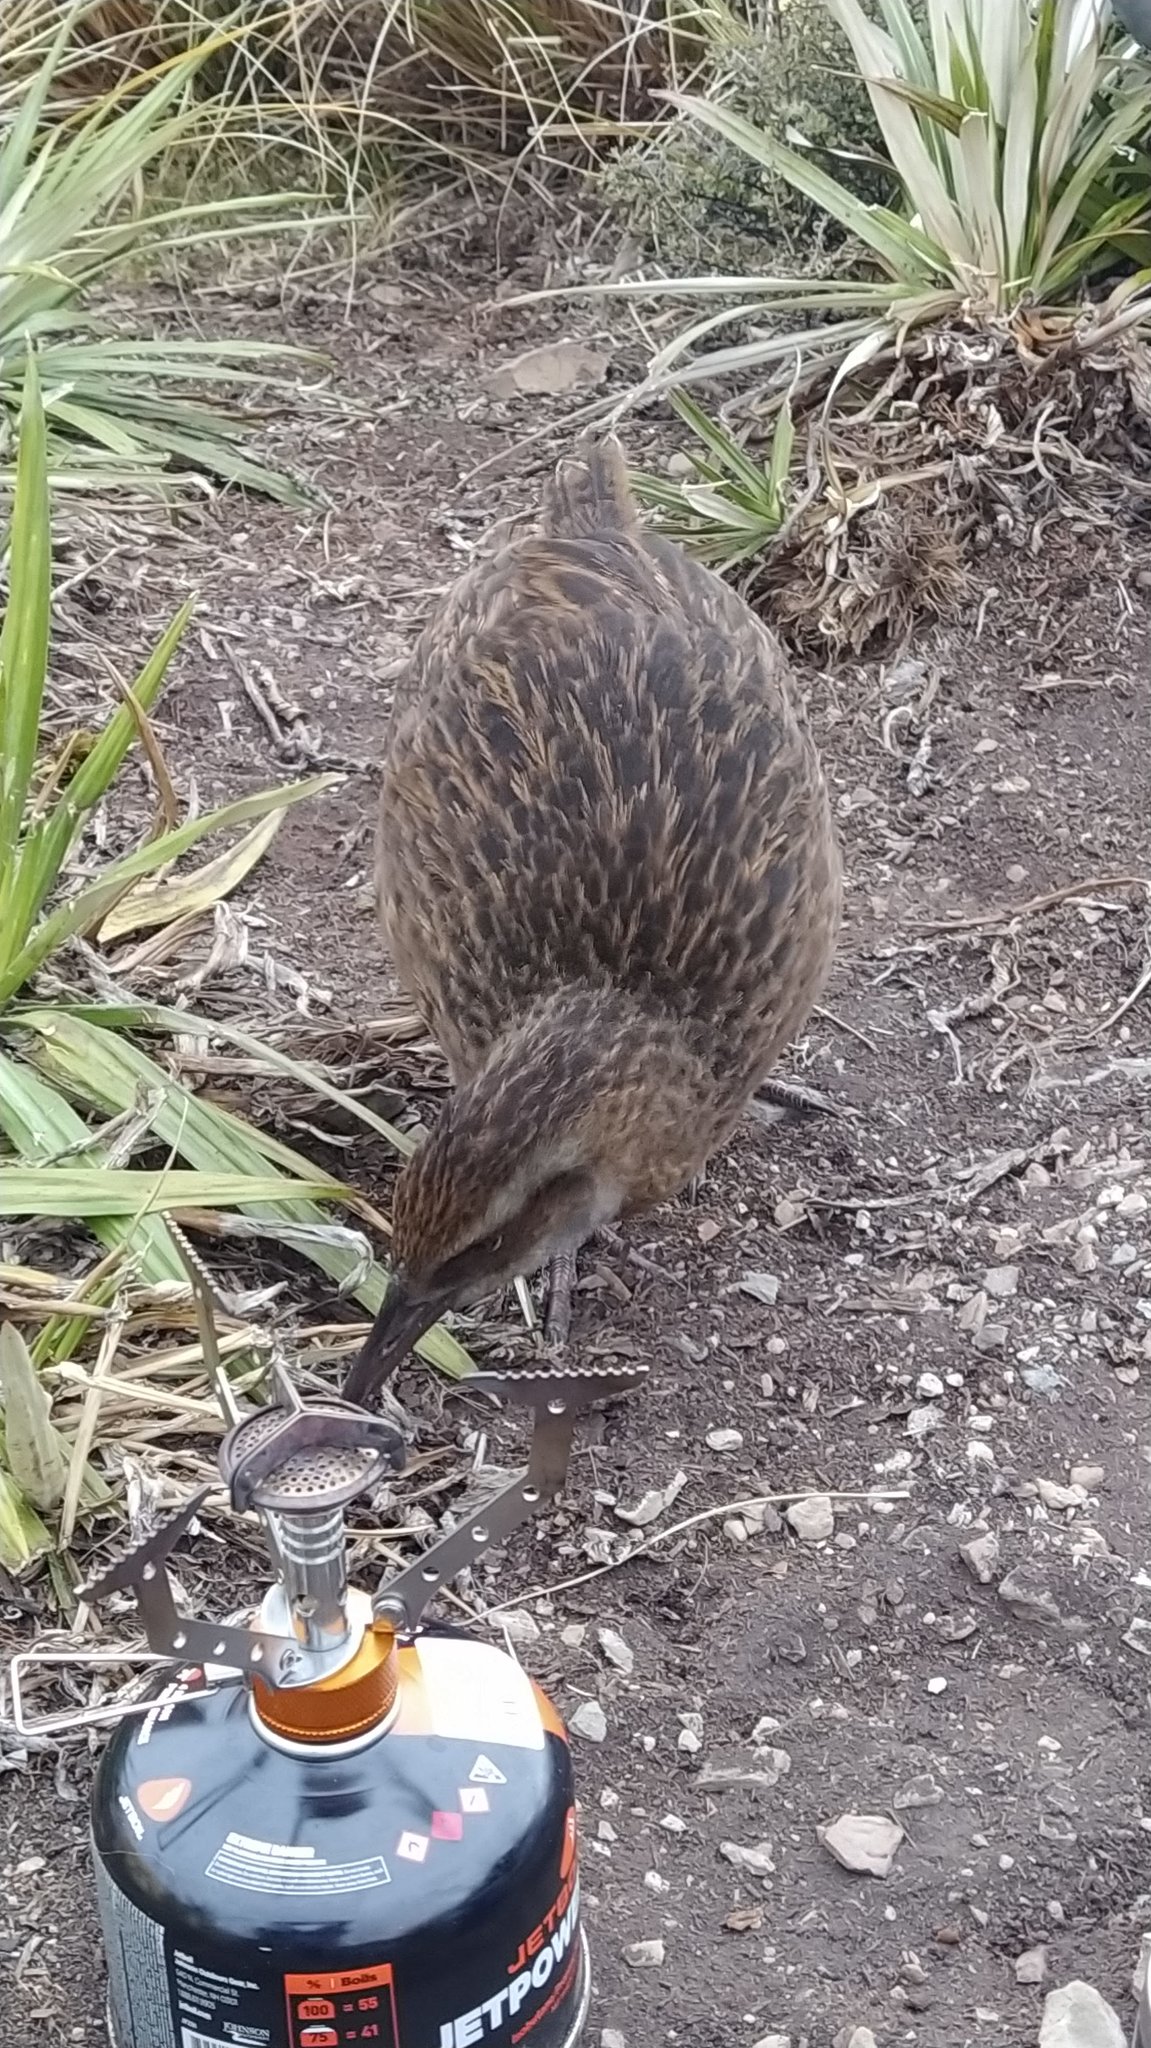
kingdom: Animalia
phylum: Chordata
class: Aves
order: Gruiformes
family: Rallidae
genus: Gallirallus
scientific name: Gallirallus australis
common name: Weka
